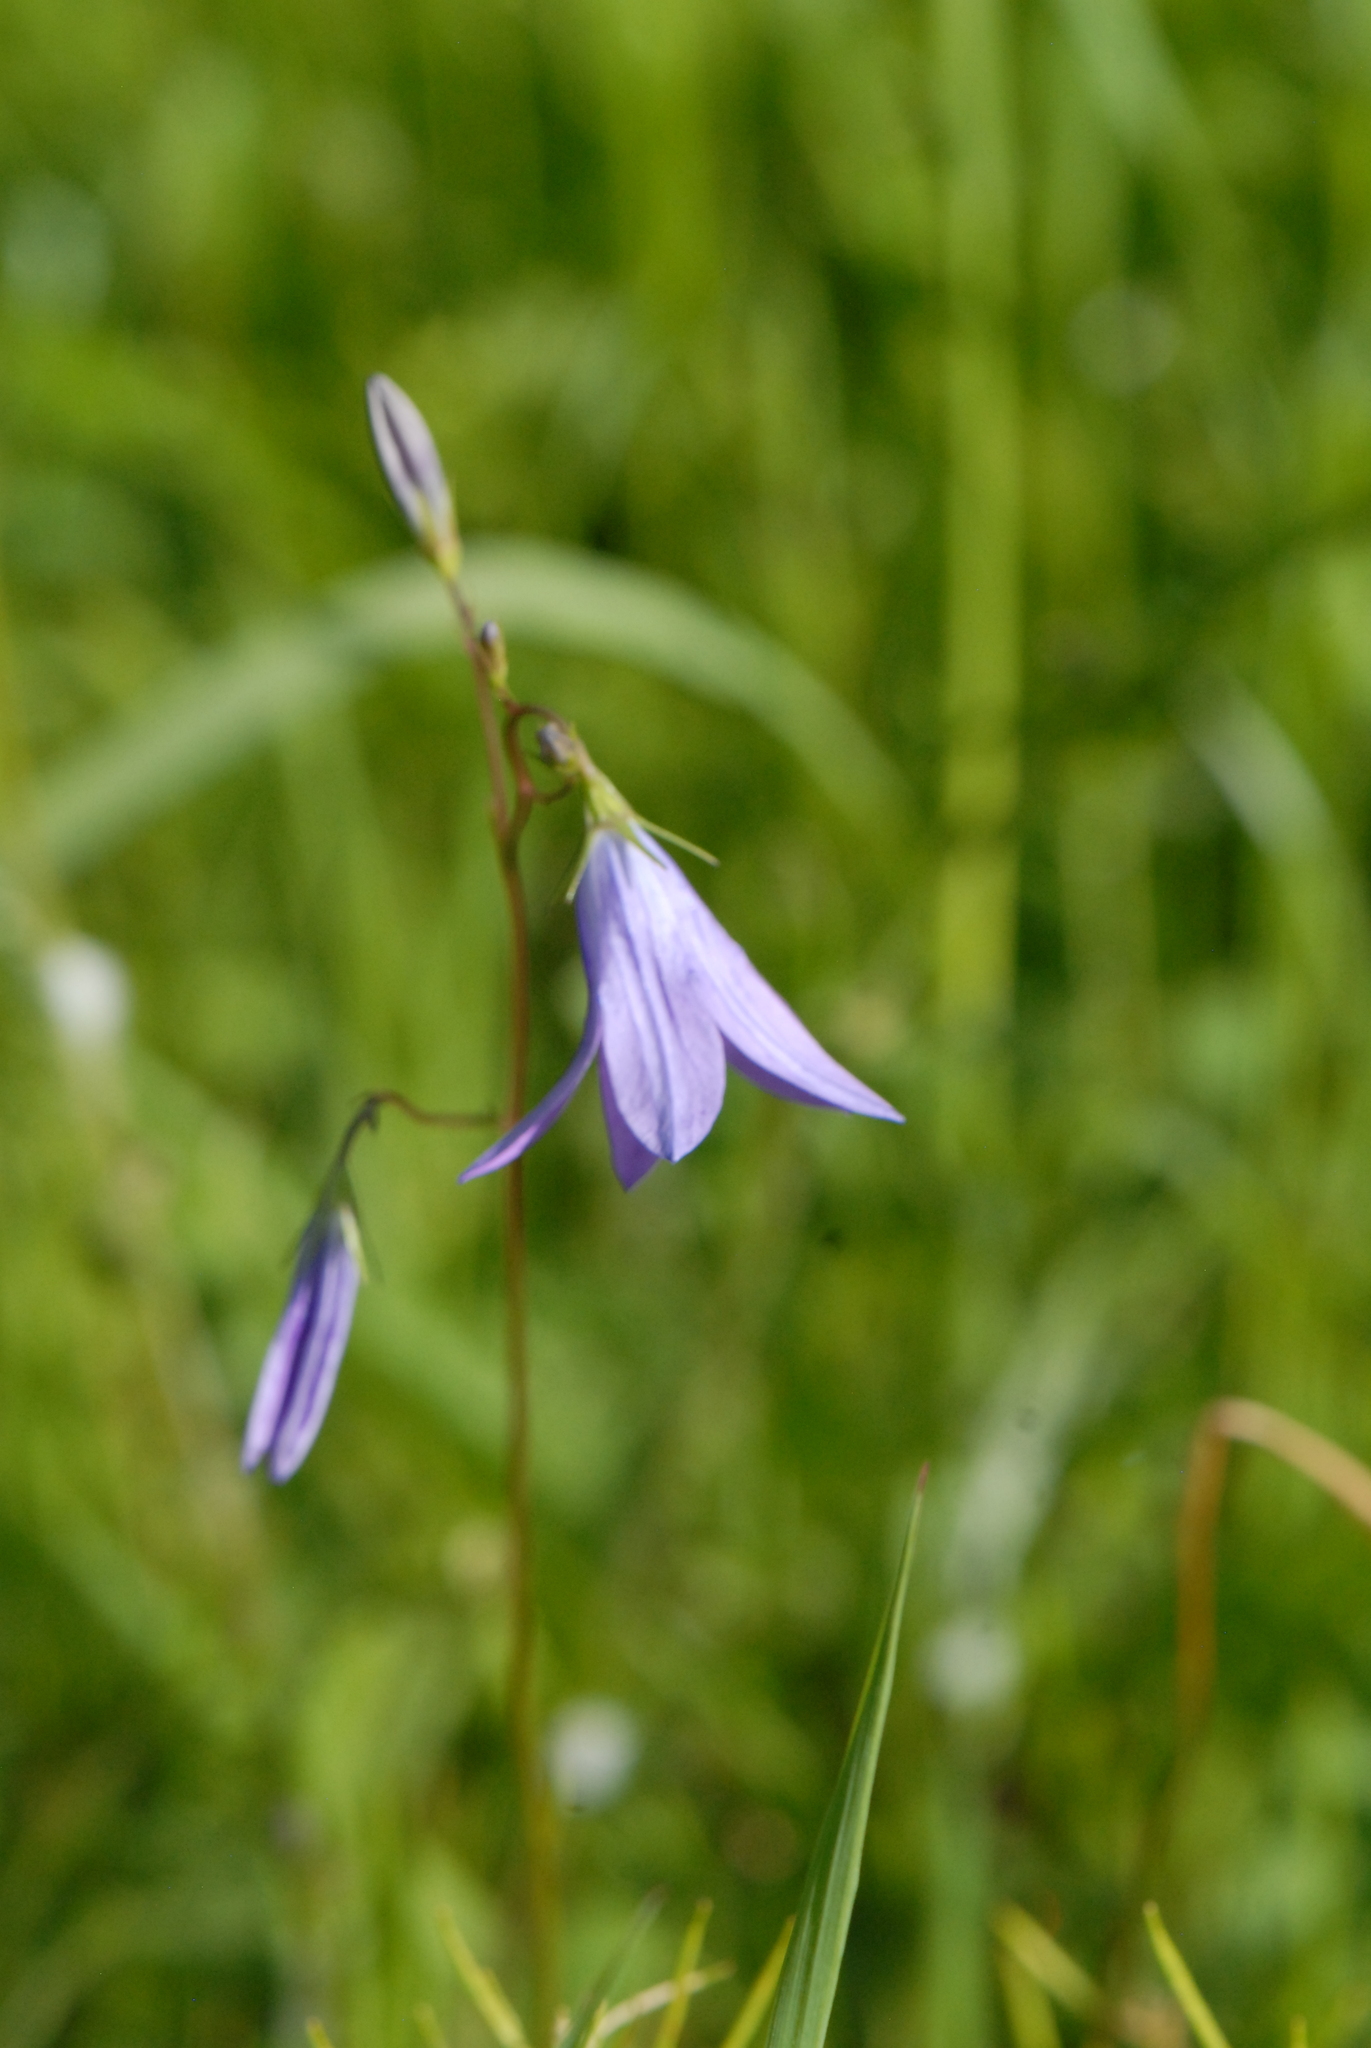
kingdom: Plantae
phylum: Tracheophyta
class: Magnoliopsida
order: Asterales
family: Campanulaceae
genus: Campanula
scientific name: Campanula patula
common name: Spreading bellflower
